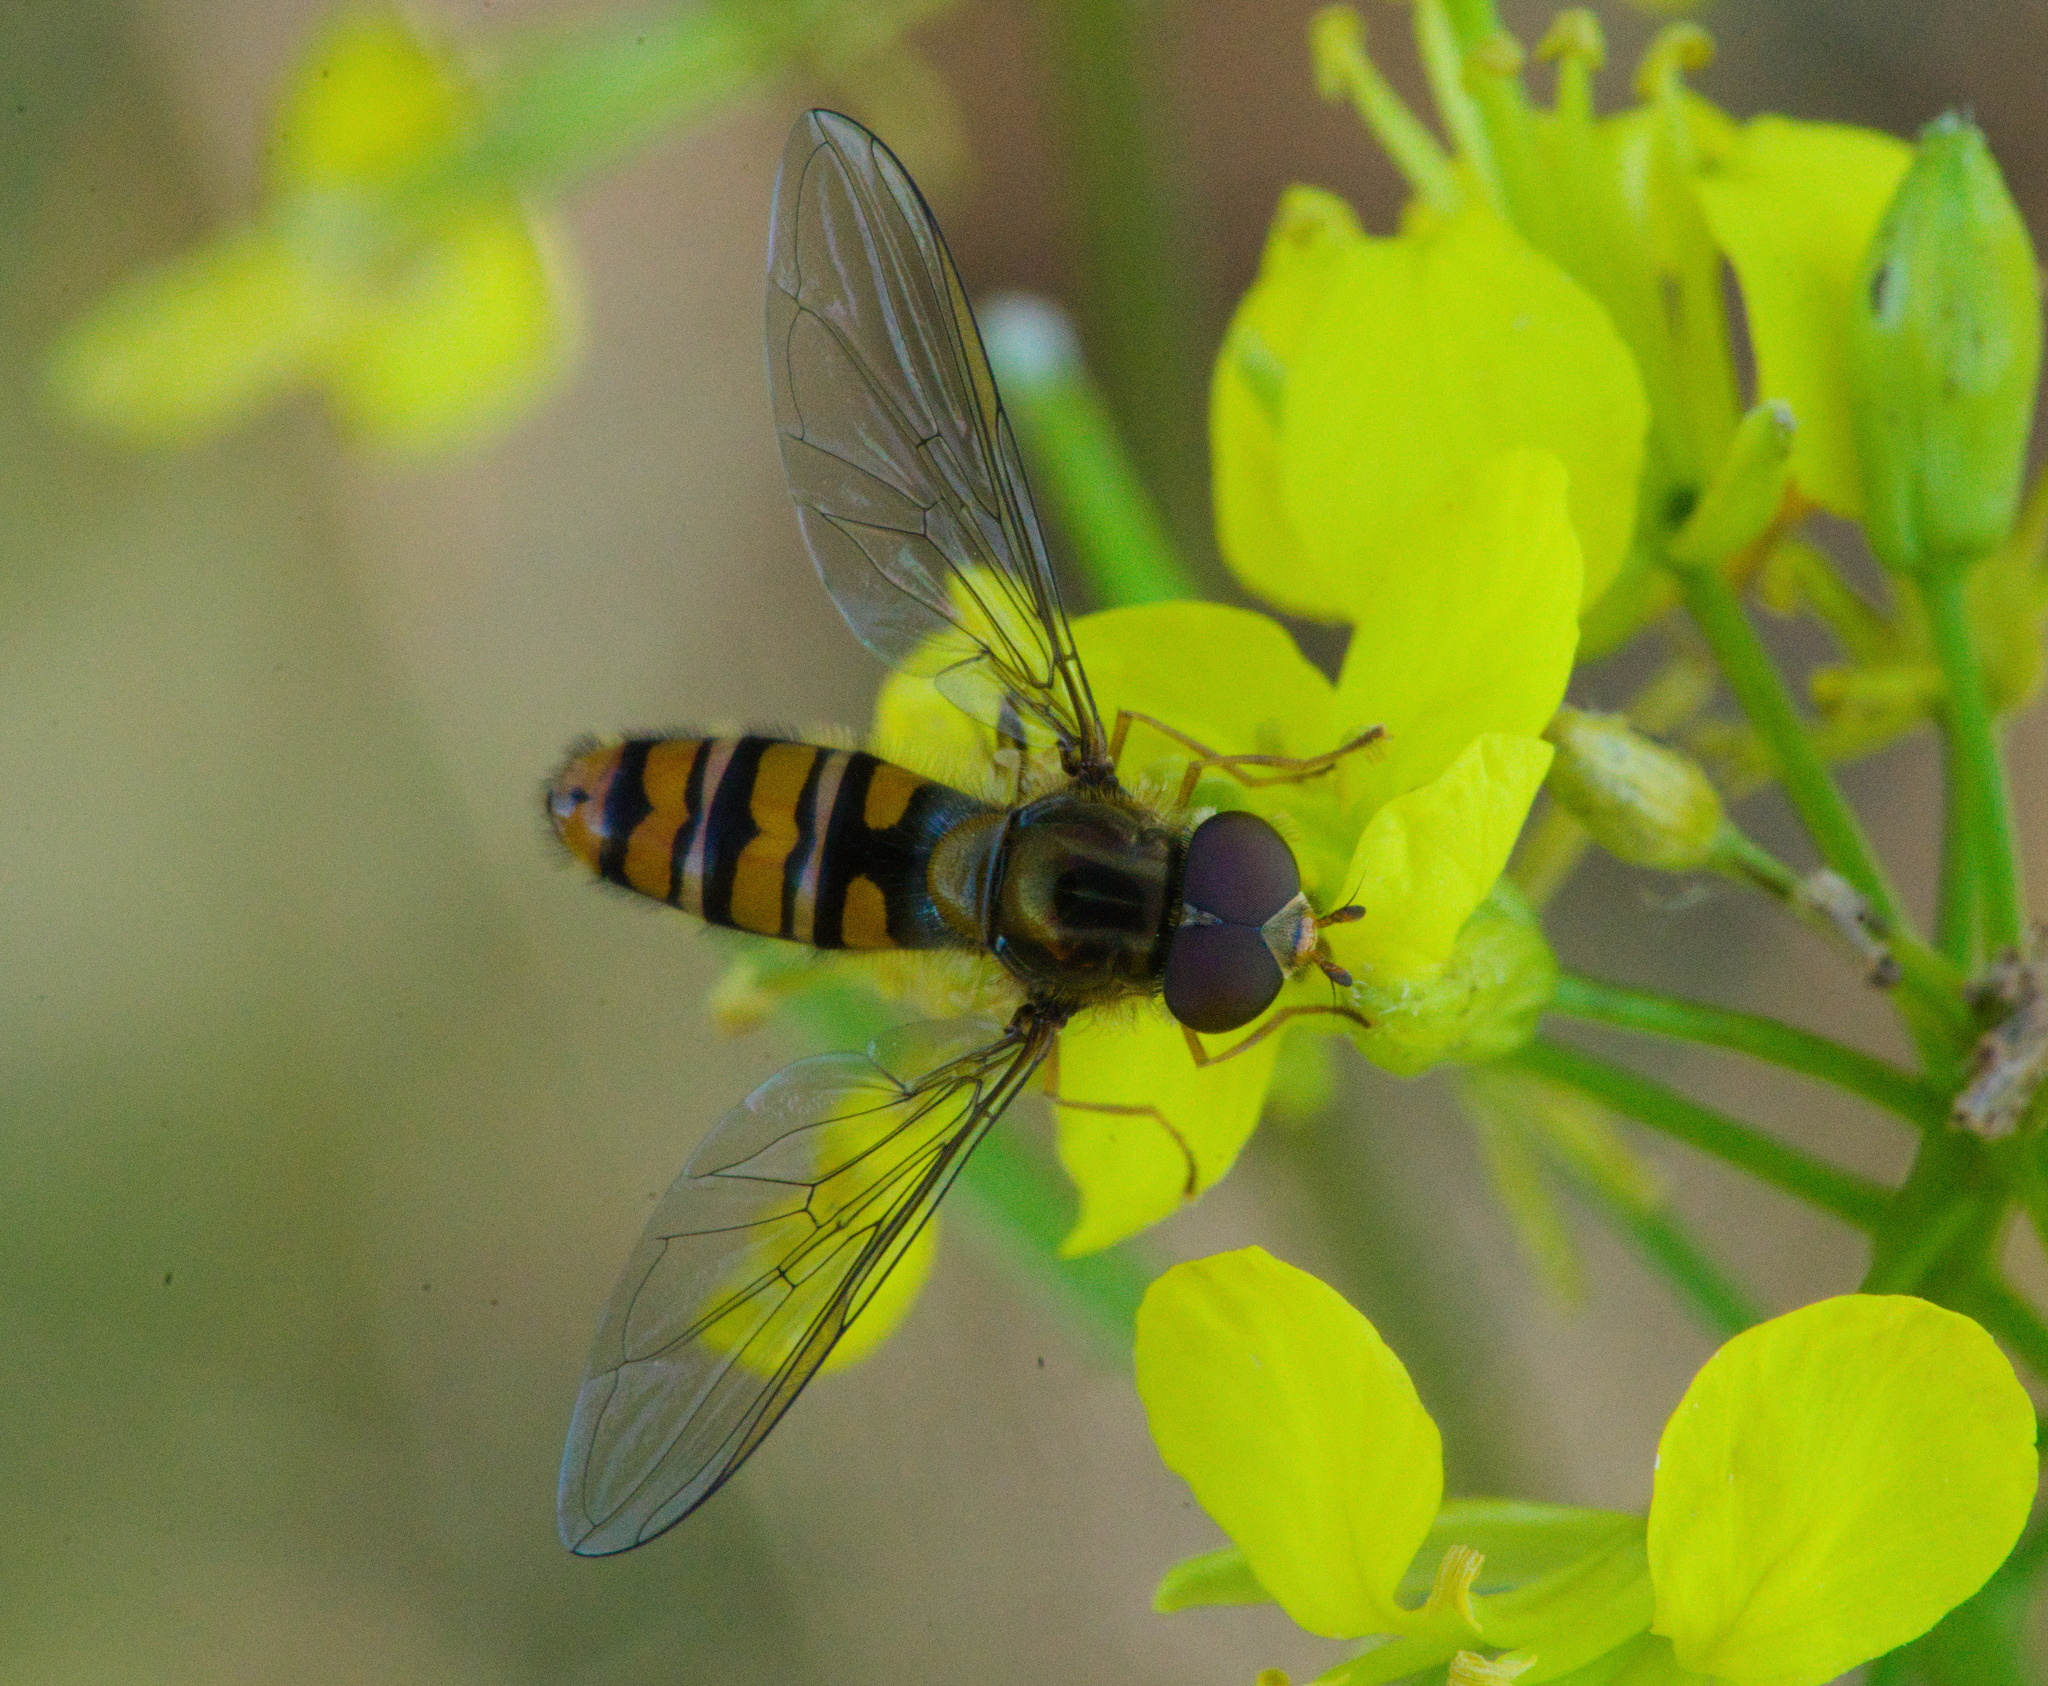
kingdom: Animalia
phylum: Arthropoda
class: Insecta
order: Diptera
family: Syrphidae
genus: Episyrphus
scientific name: Episyrphus balteatus
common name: Marmalade hoverfly
